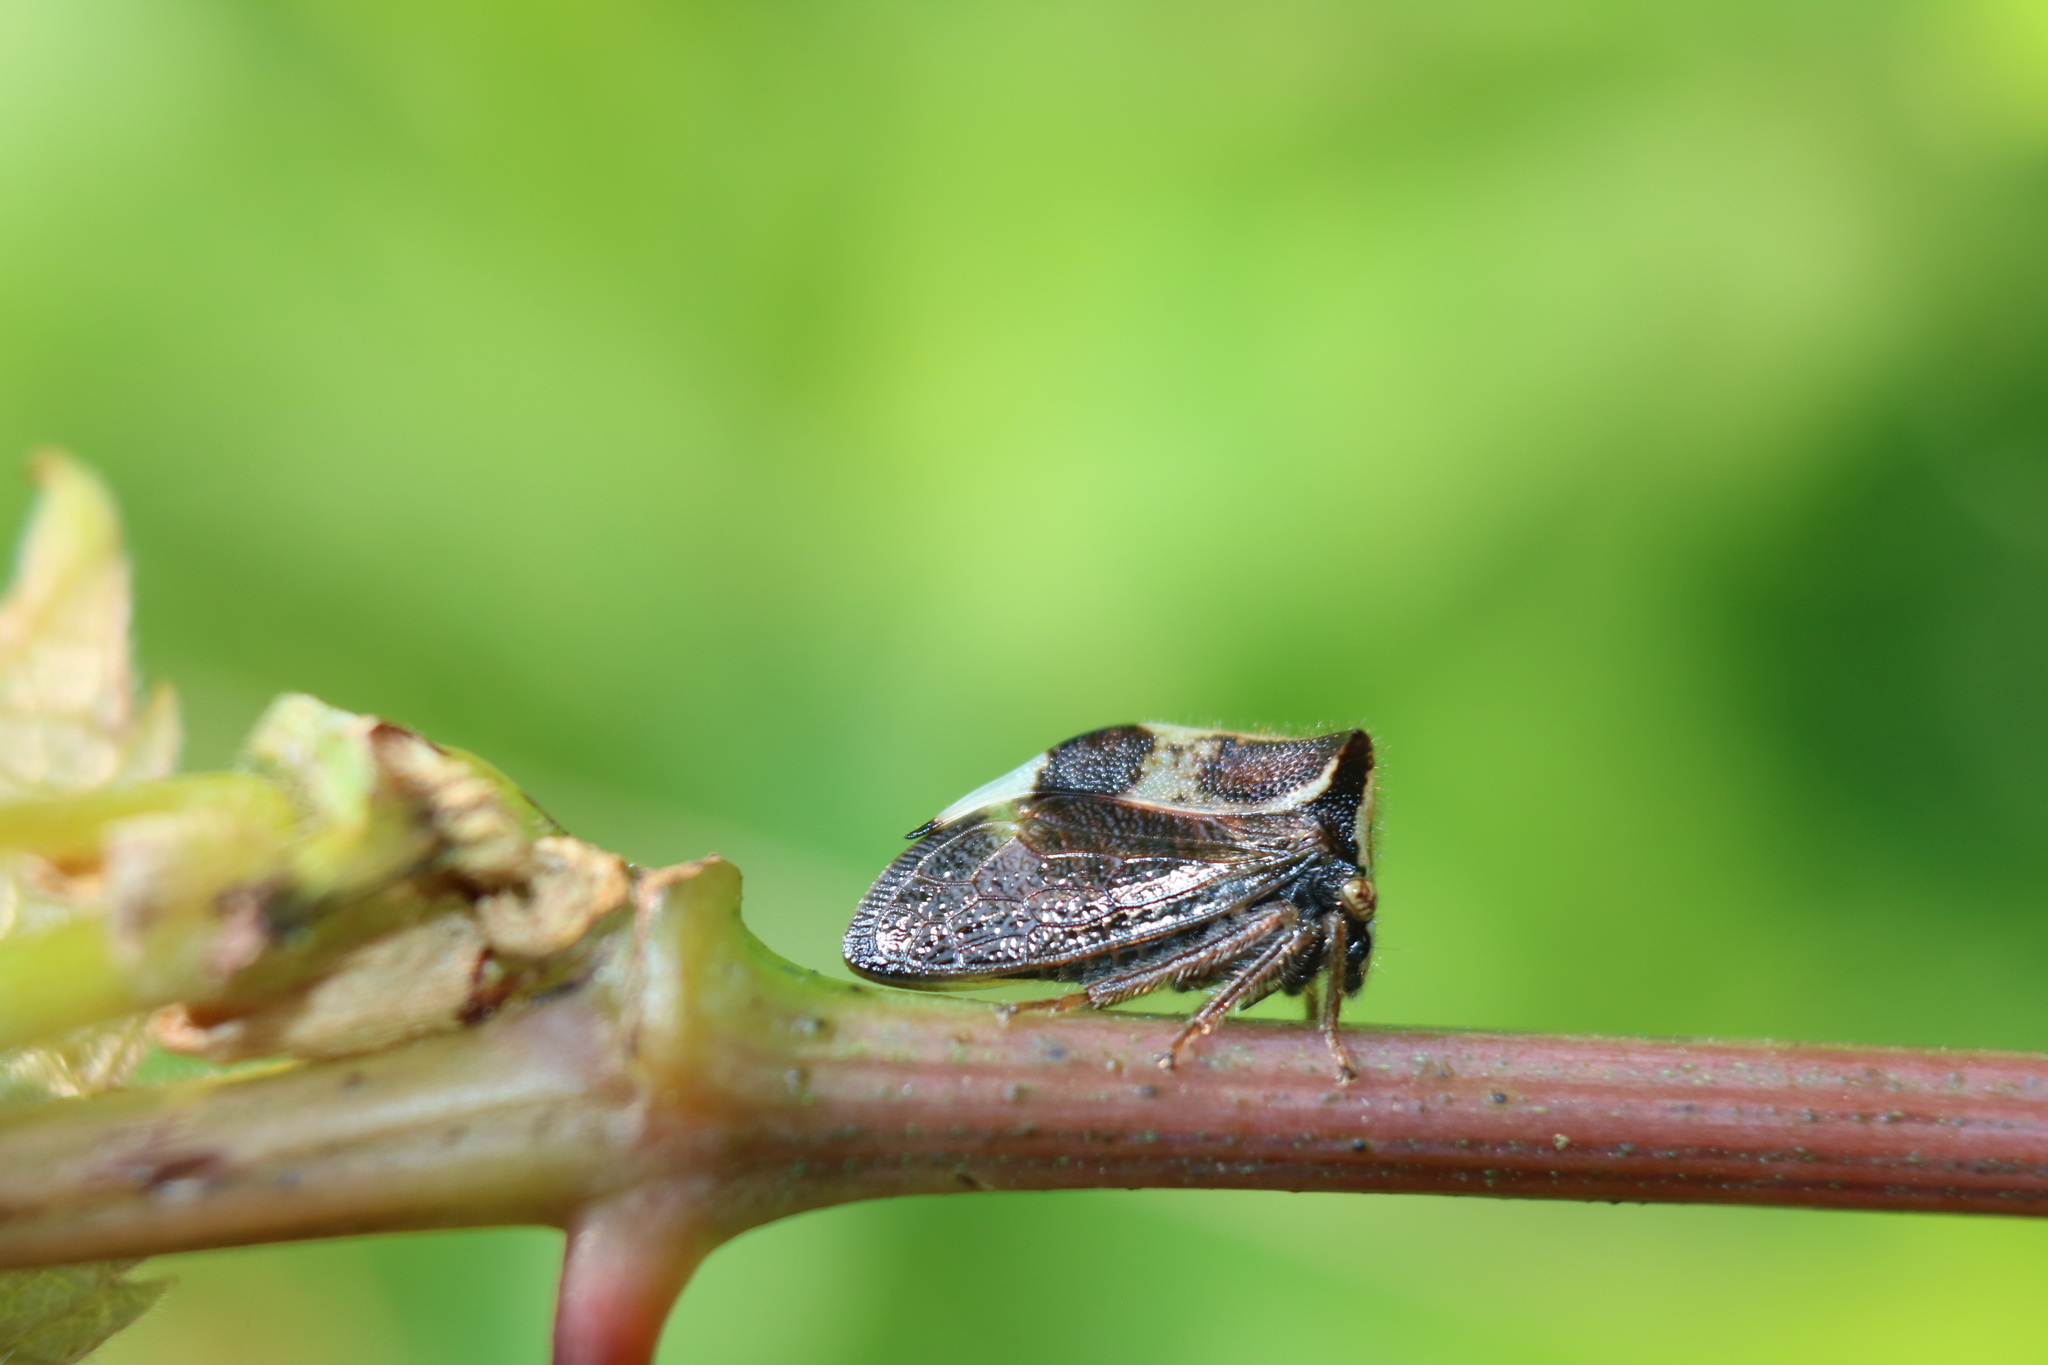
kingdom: Animalia
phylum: Arthropoda
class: Insecta
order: Hemiptera
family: Membracidae
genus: Stictocephala
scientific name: Stictocephala diceros
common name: Two-horned treehopper
